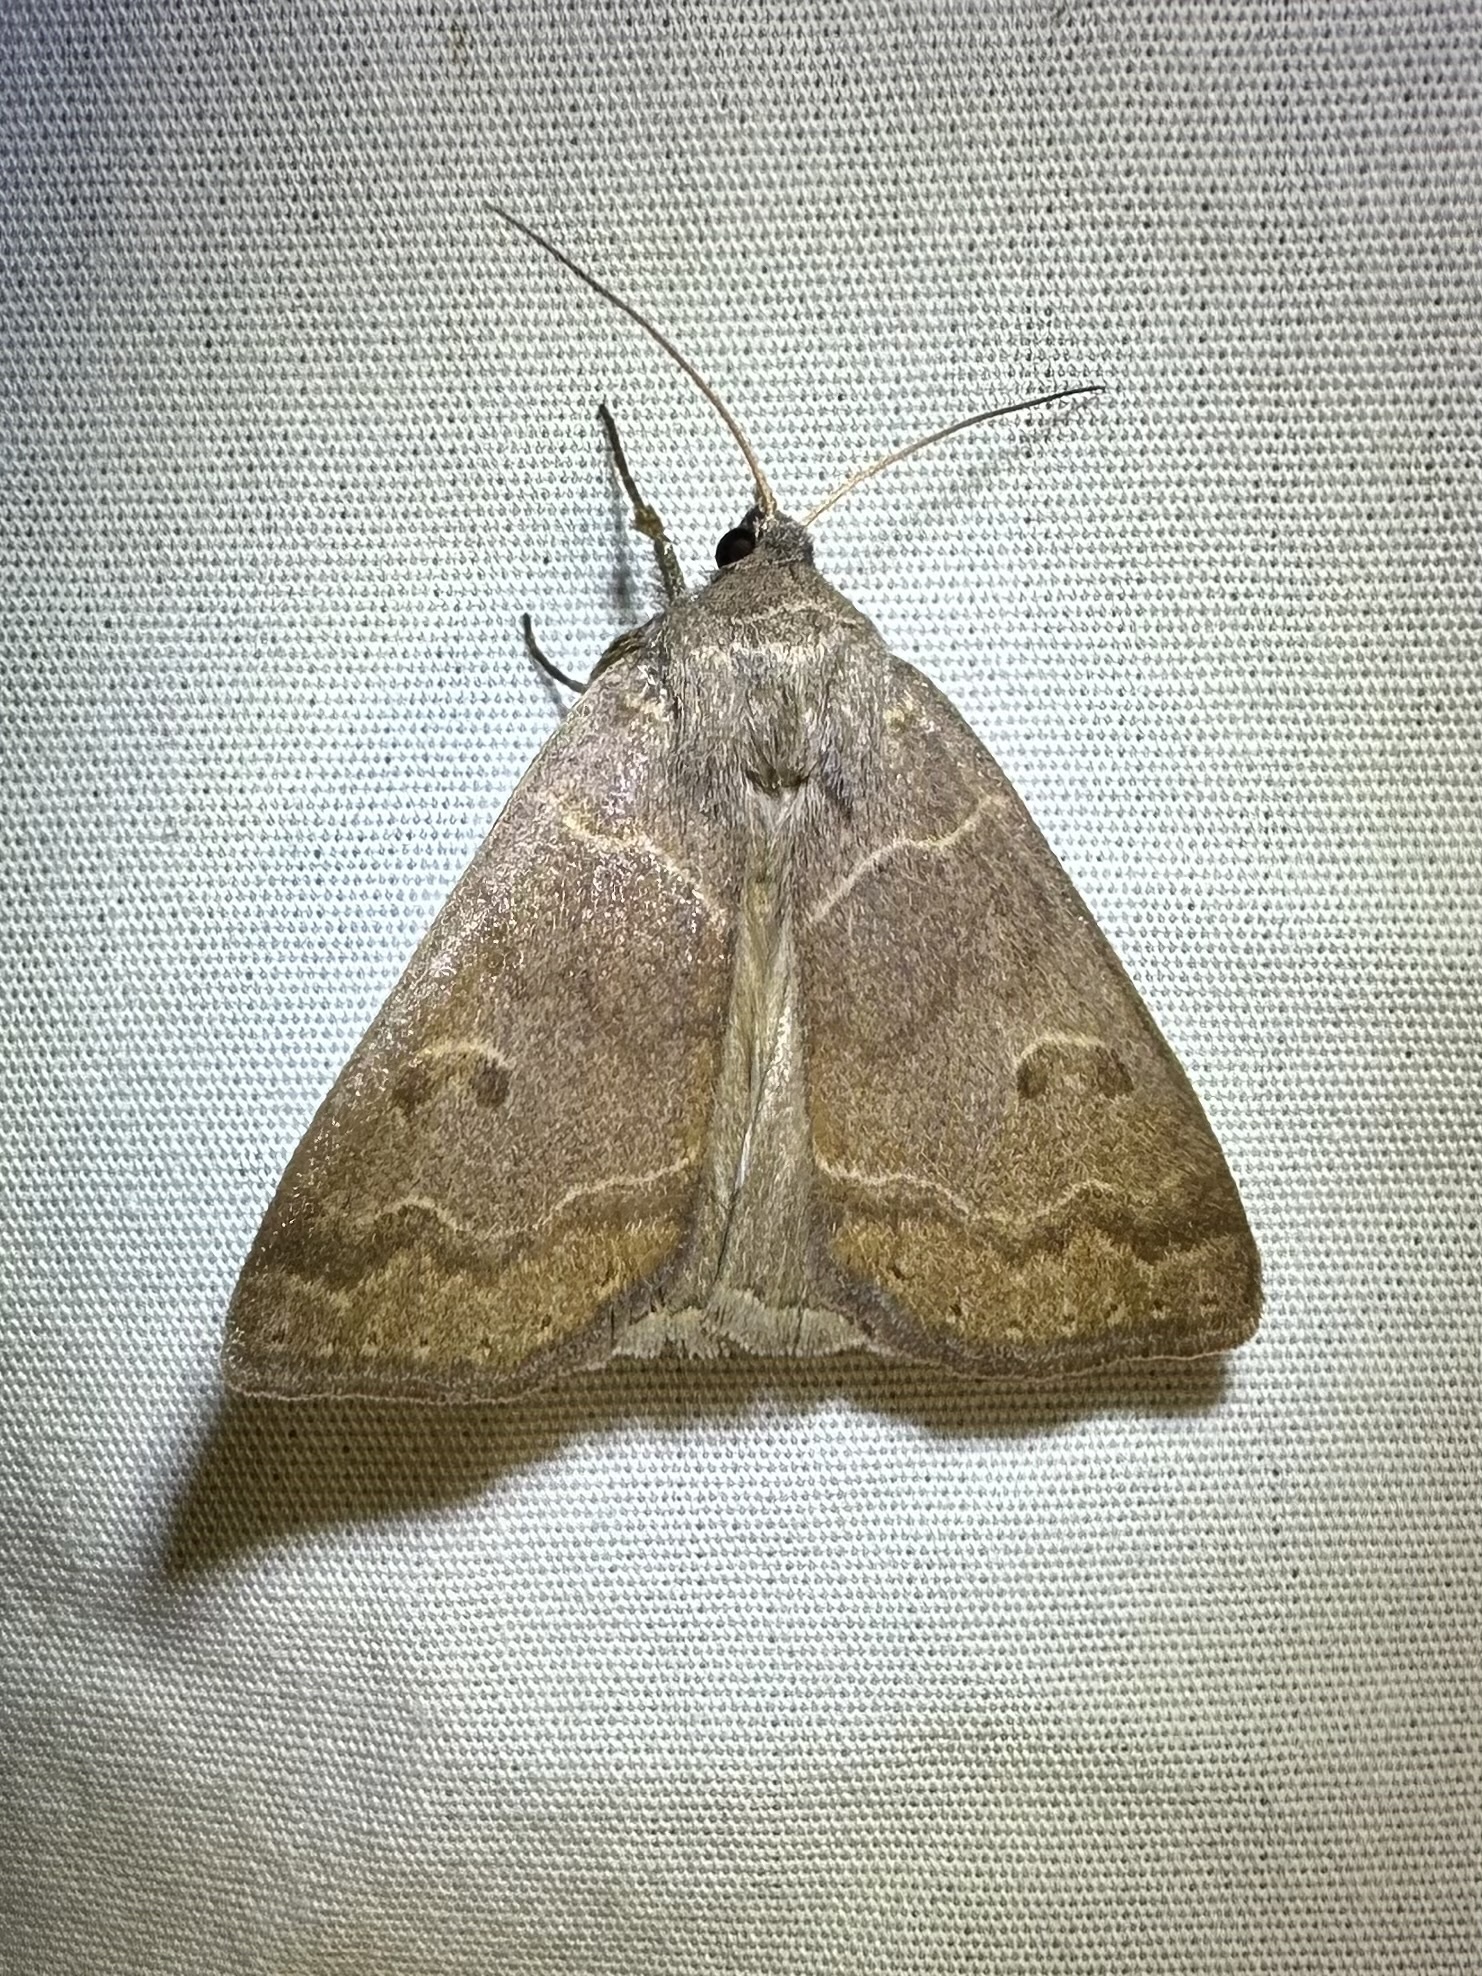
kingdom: Animalia
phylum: Arthropoda
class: Insecta
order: Lepidoptera
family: Erebidae
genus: Phoberia
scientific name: Phoberia atomaris
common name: Common oak moth
